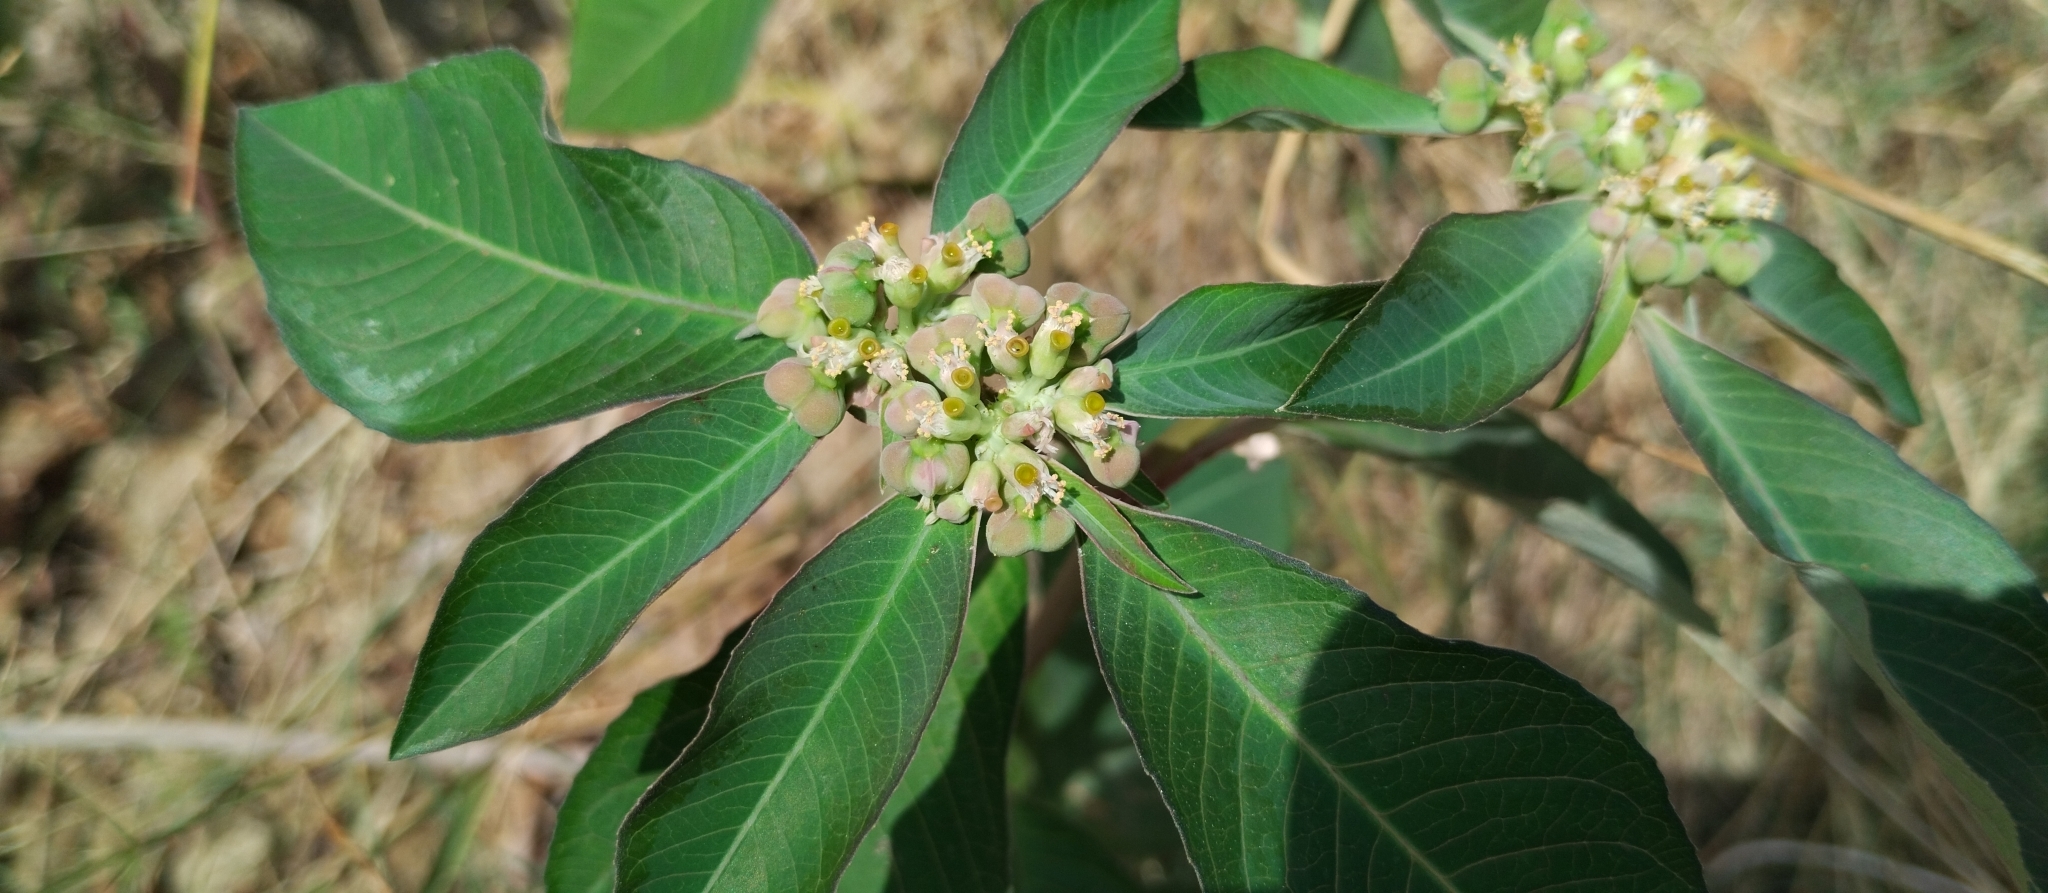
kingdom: Plantae
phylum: Tracheophyta
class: Magnoliopsida
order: Malpighiales
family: Euphorbiaceae
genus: Euphorbia
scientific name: Euphorbia heterophylla
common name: Mexican fireplant
